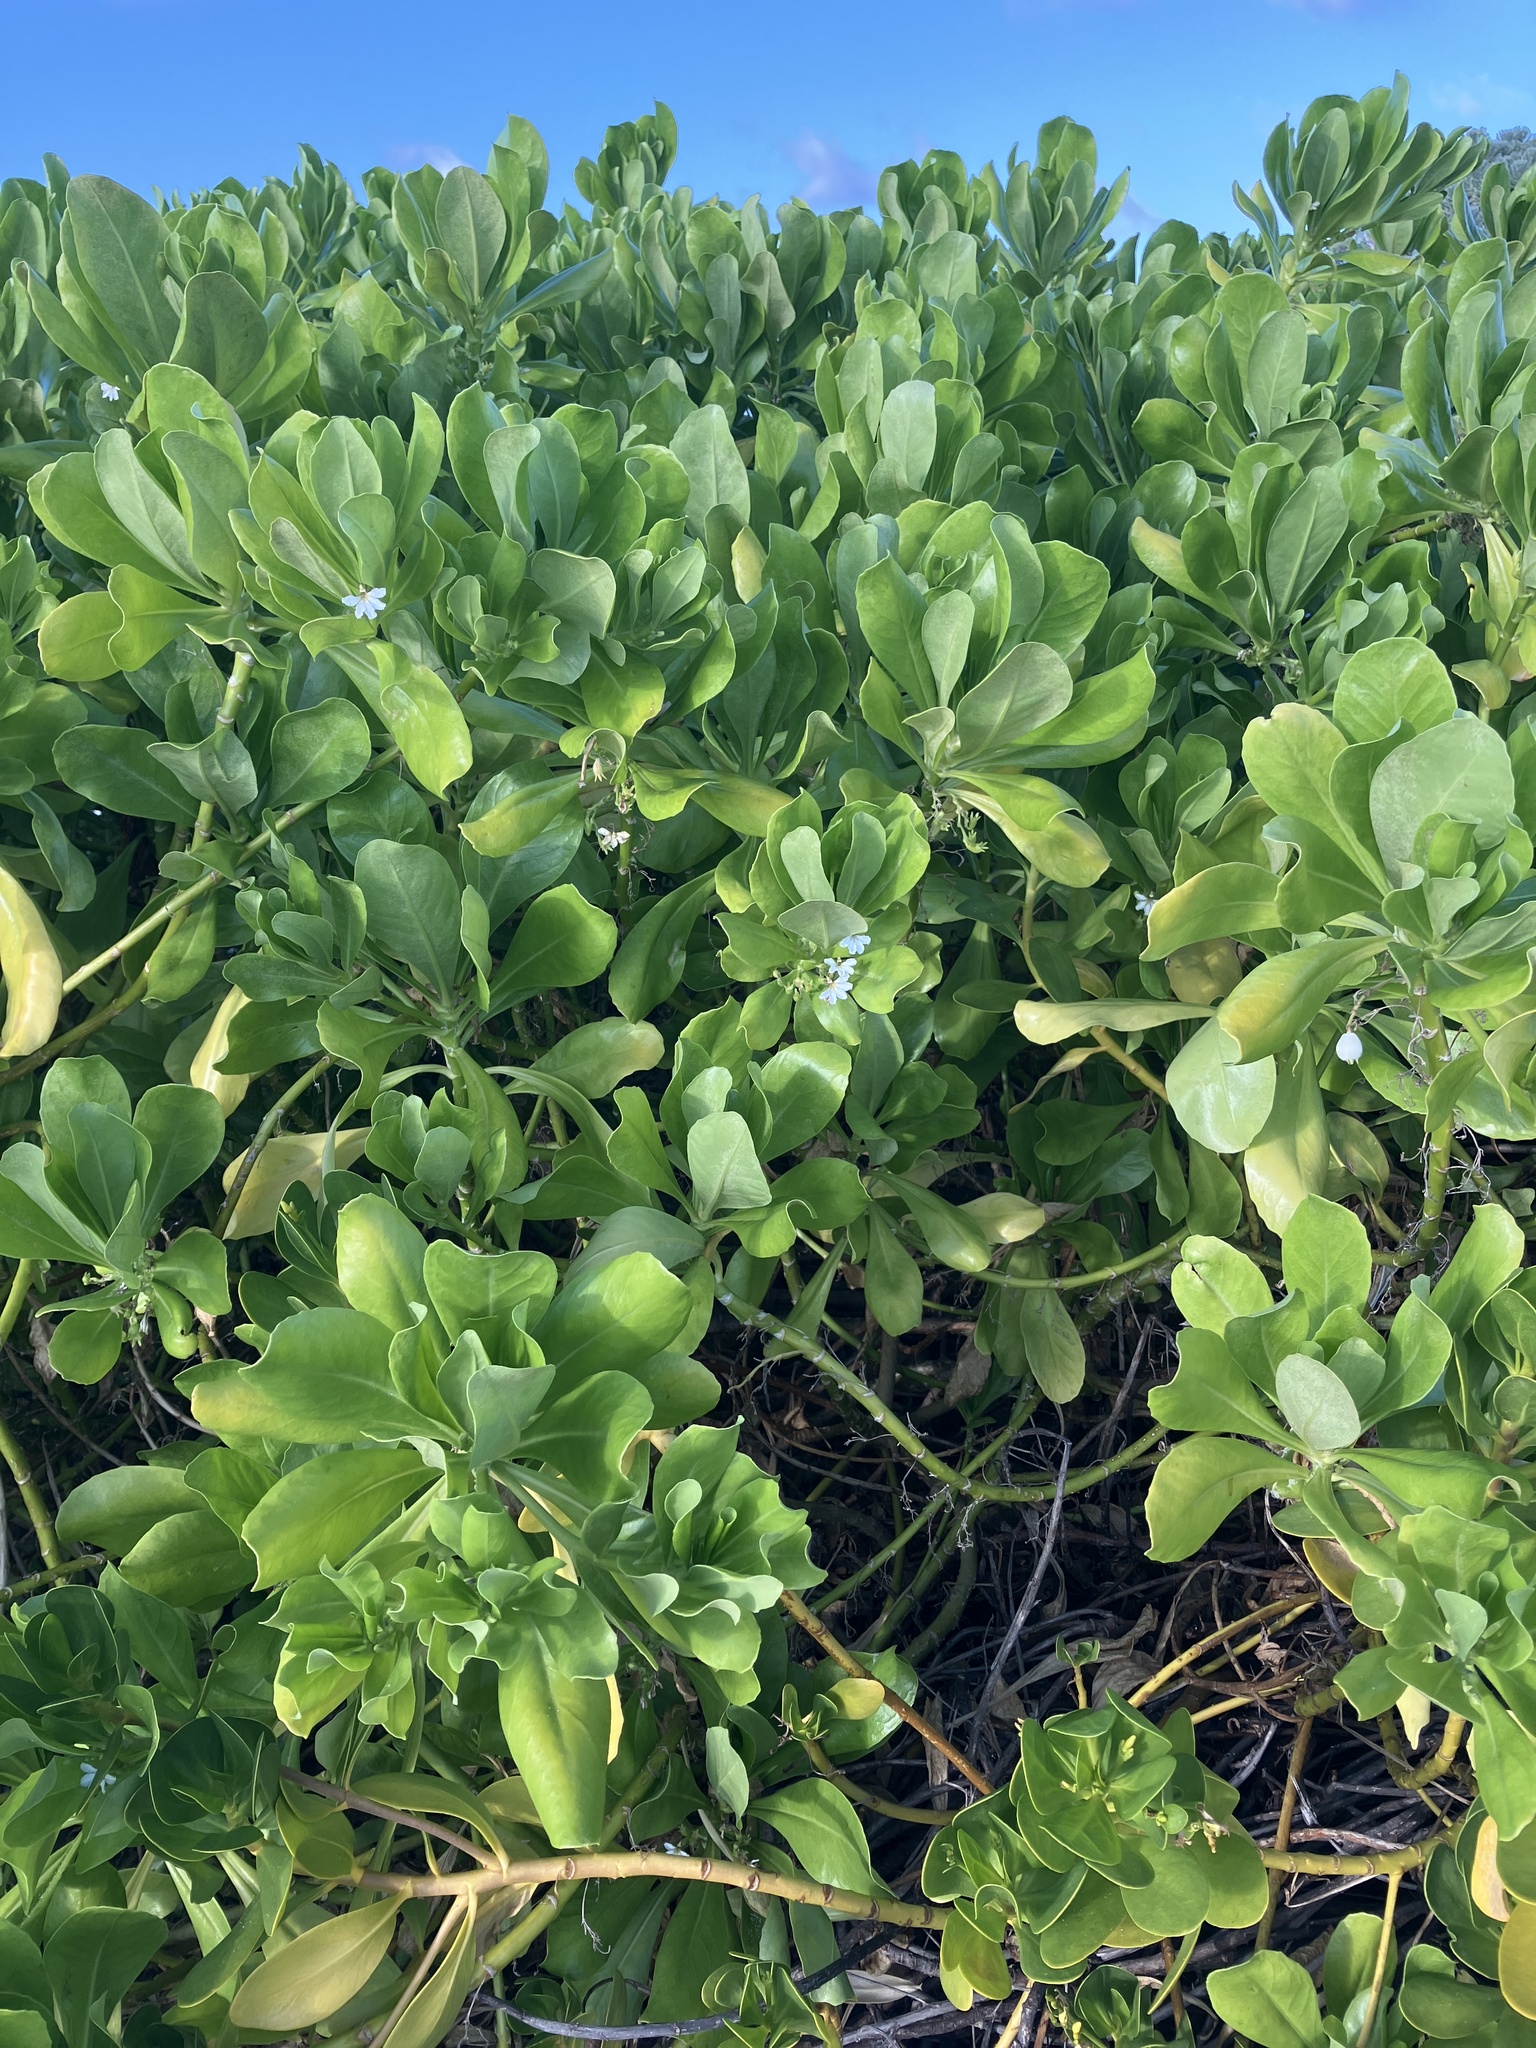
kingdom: Plantae
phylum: Tracheophyta
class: Magnoliopsida
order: Asterales
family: Goodeniaceae
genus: Scaevola
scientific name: Scaevola taccada
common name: Sea lettucetree
